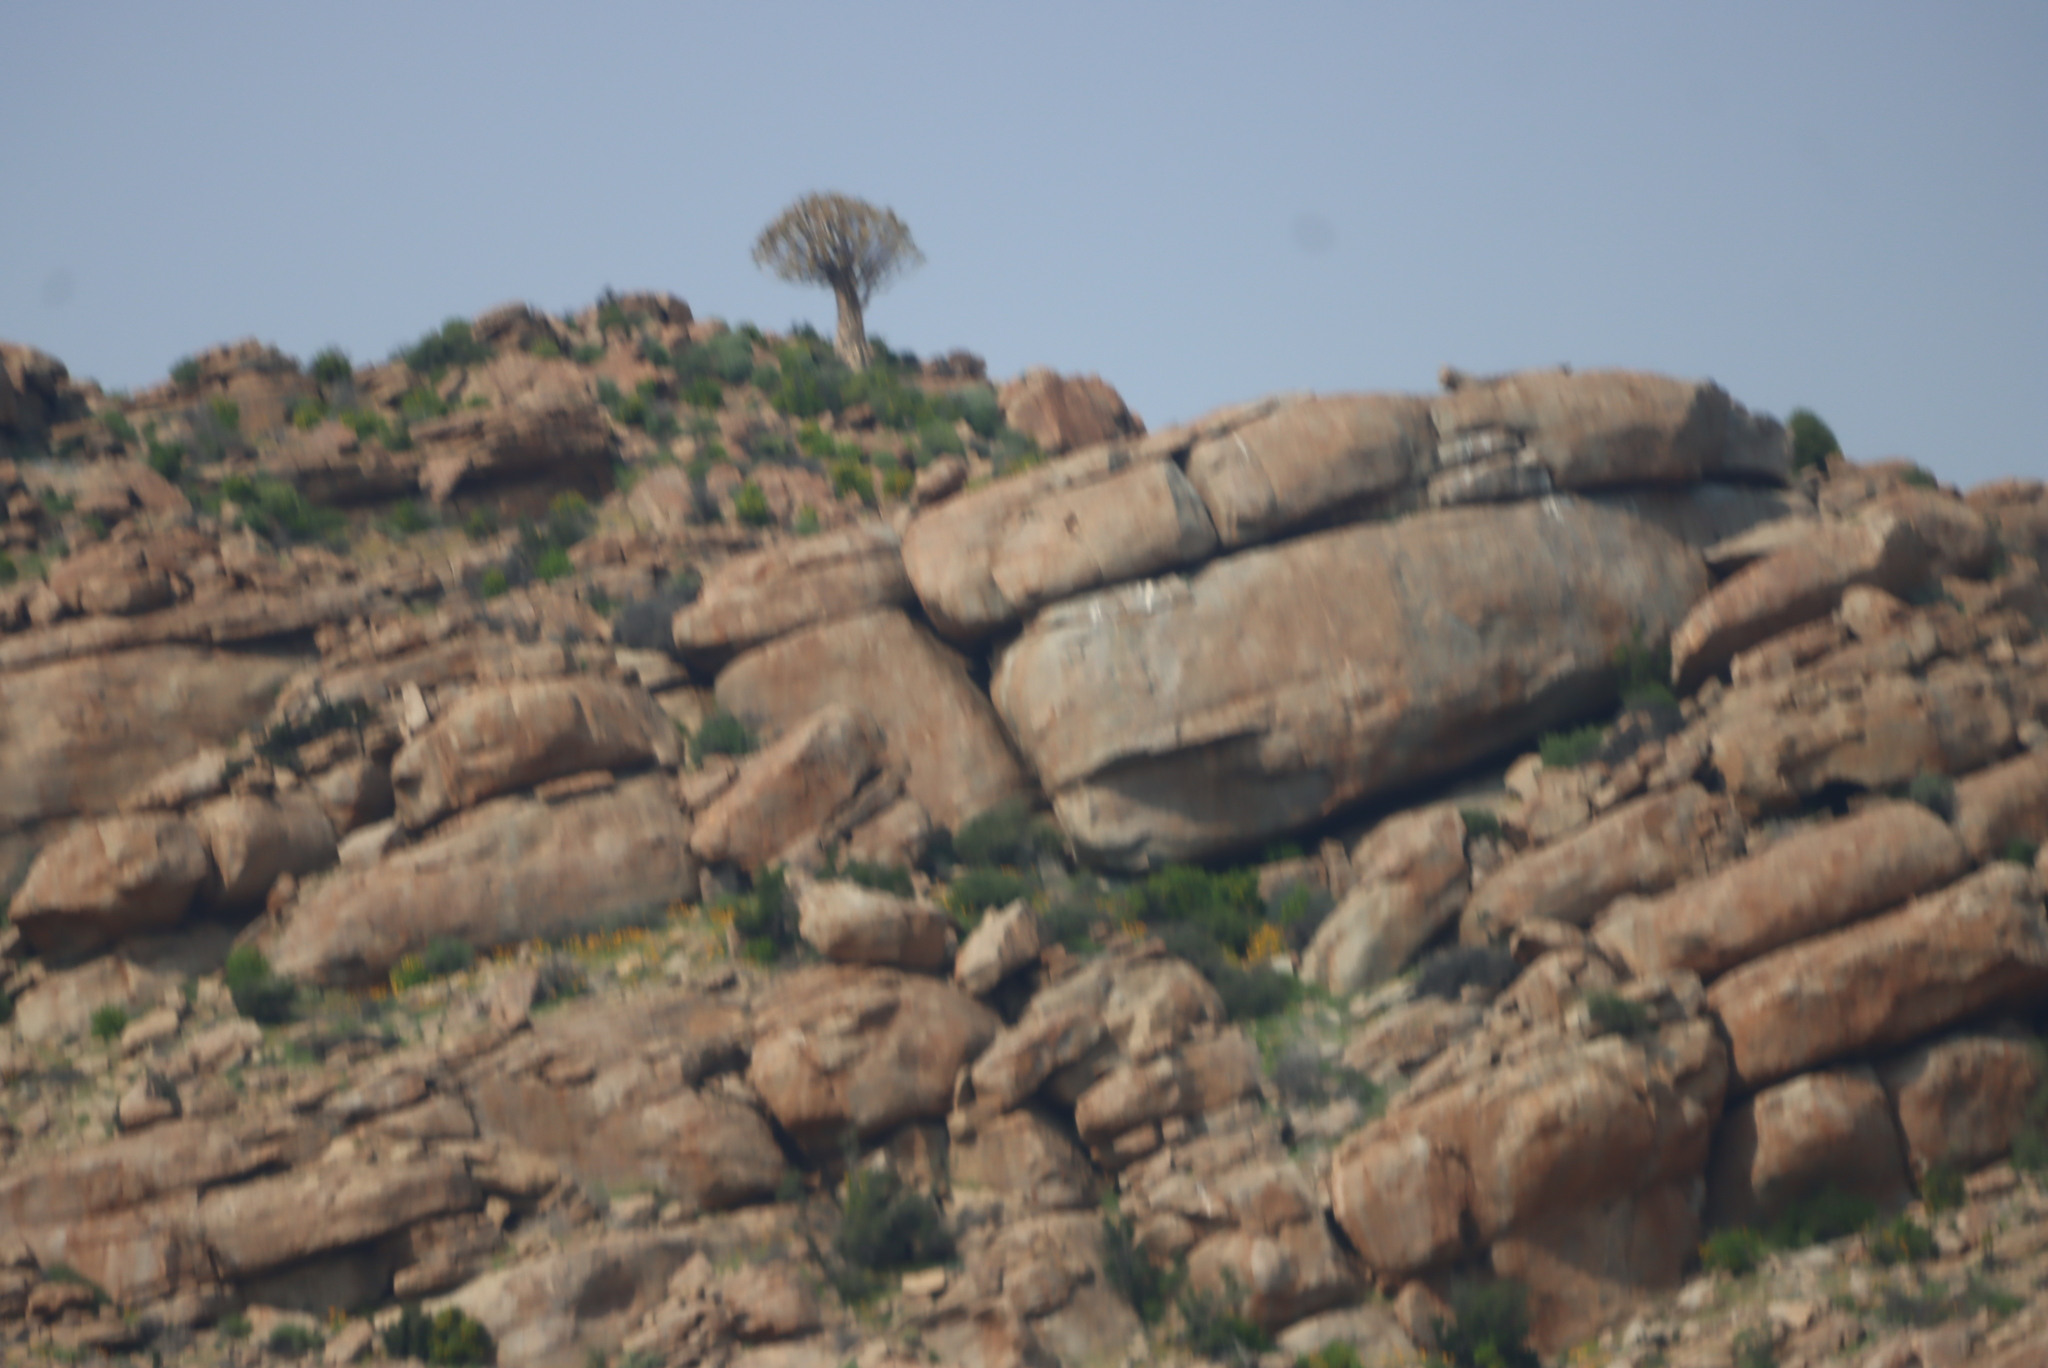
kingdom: Plantae
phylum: Tracheophyta
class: Liliopsida
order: Asparagales
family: Asphodelaceae
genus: Aloidendron
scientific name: Aloidendron dichotomum
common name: Quiver tree
